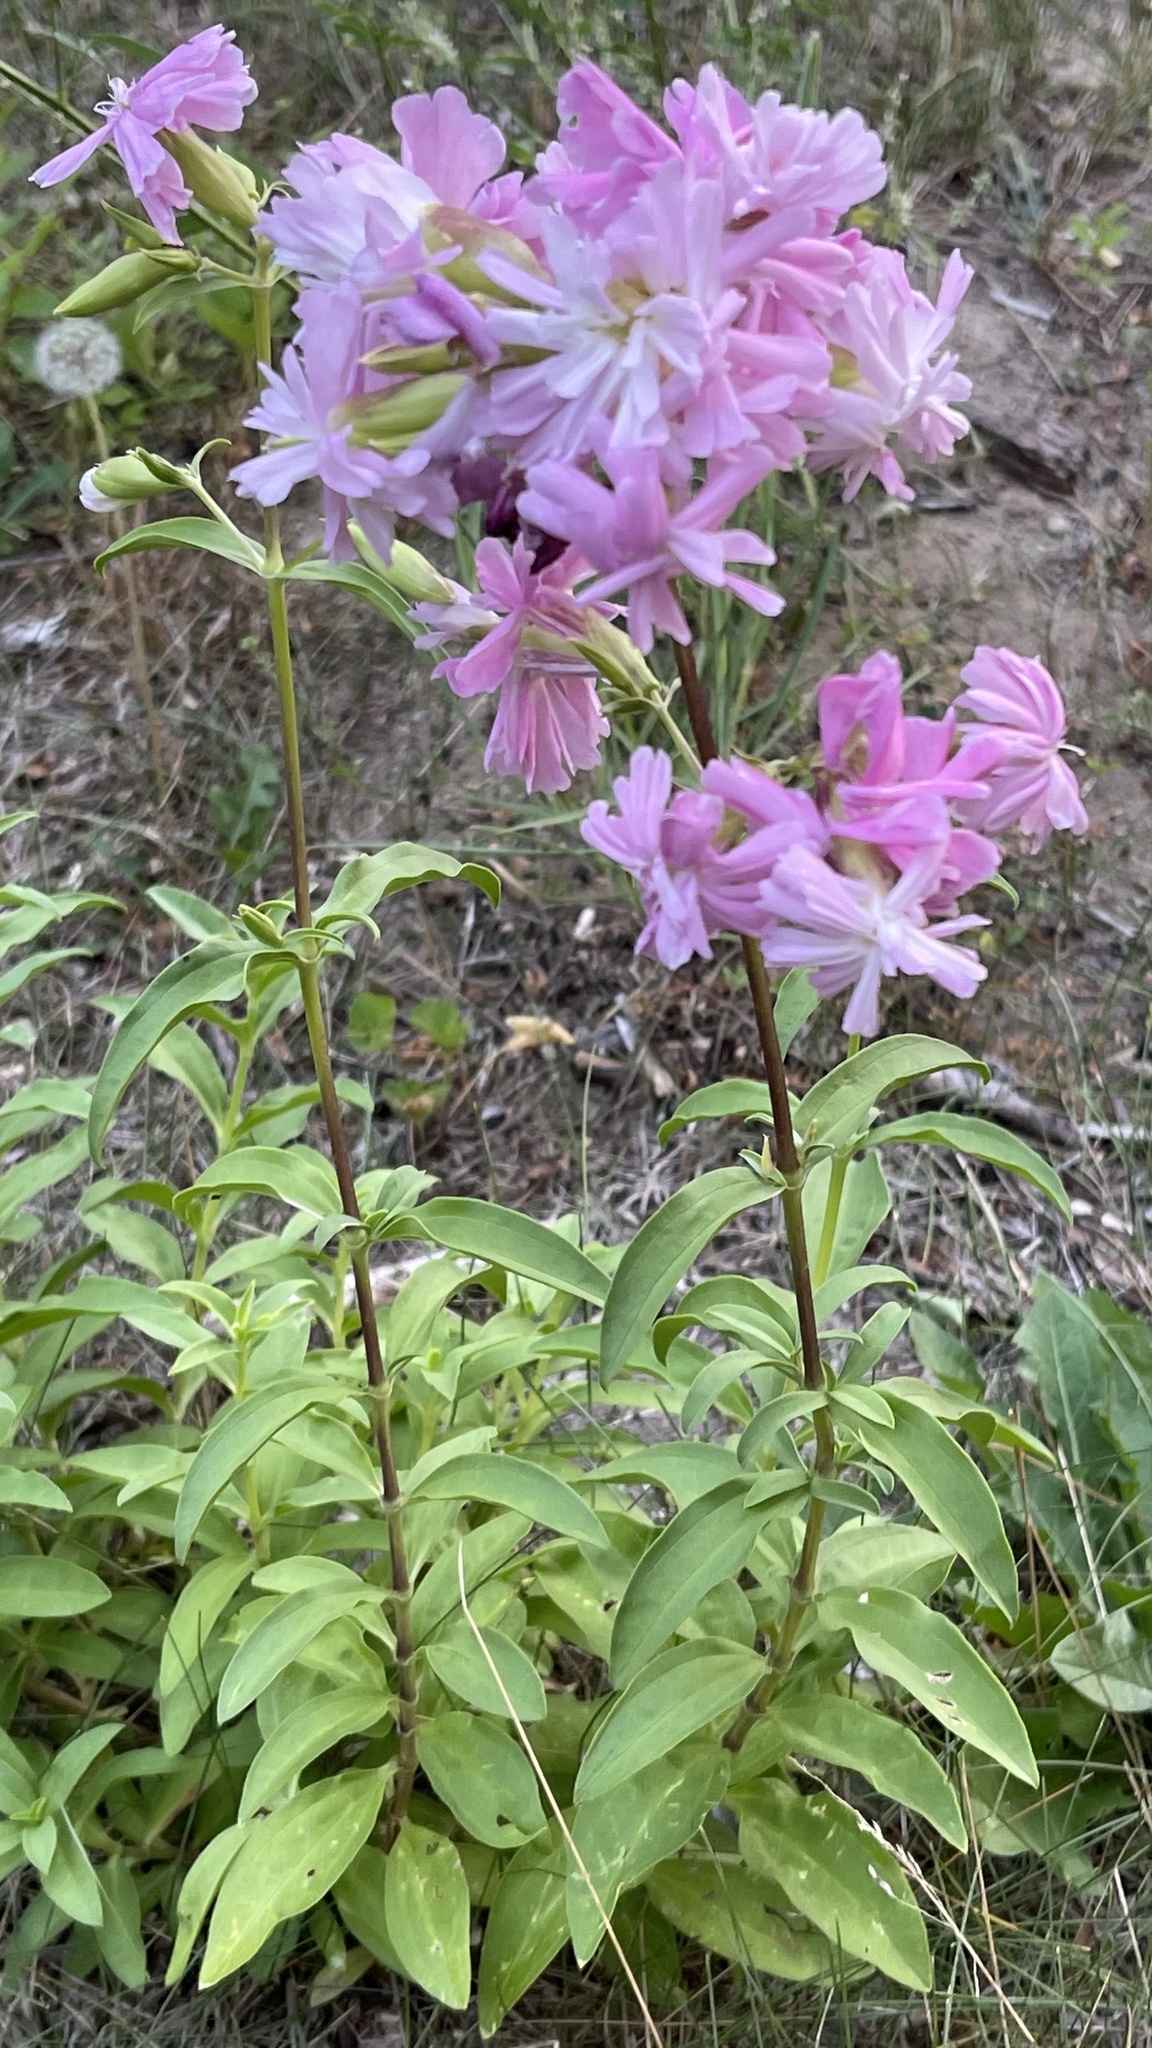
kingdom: Plantae
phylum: Tracheophyta
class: Magnoliopsida
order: Caryophyllales
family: Caryophyllaceae
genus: Saponaria
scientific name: Saponaria officinalis
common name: Soapwort
